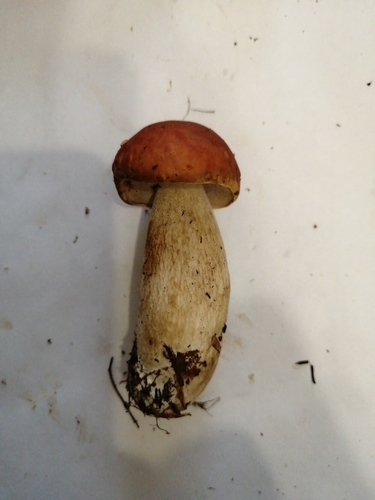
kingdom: Fungi
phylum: Basidiomycota
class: Agaricomycetes
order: Boletales
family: Boletaceae
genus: Boletus
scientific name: Boletus edulis
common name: Cep
